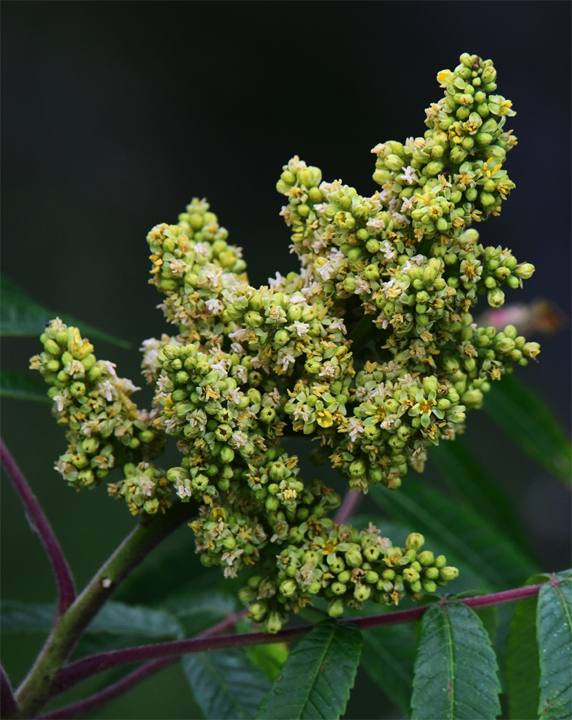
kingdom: Plantae
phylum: Tracheophyta
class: Magnoliopsida
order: Sapindales
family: Anacardiaceae
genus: Rhus
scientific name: Rhus glabra
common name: Scarlet sumac
